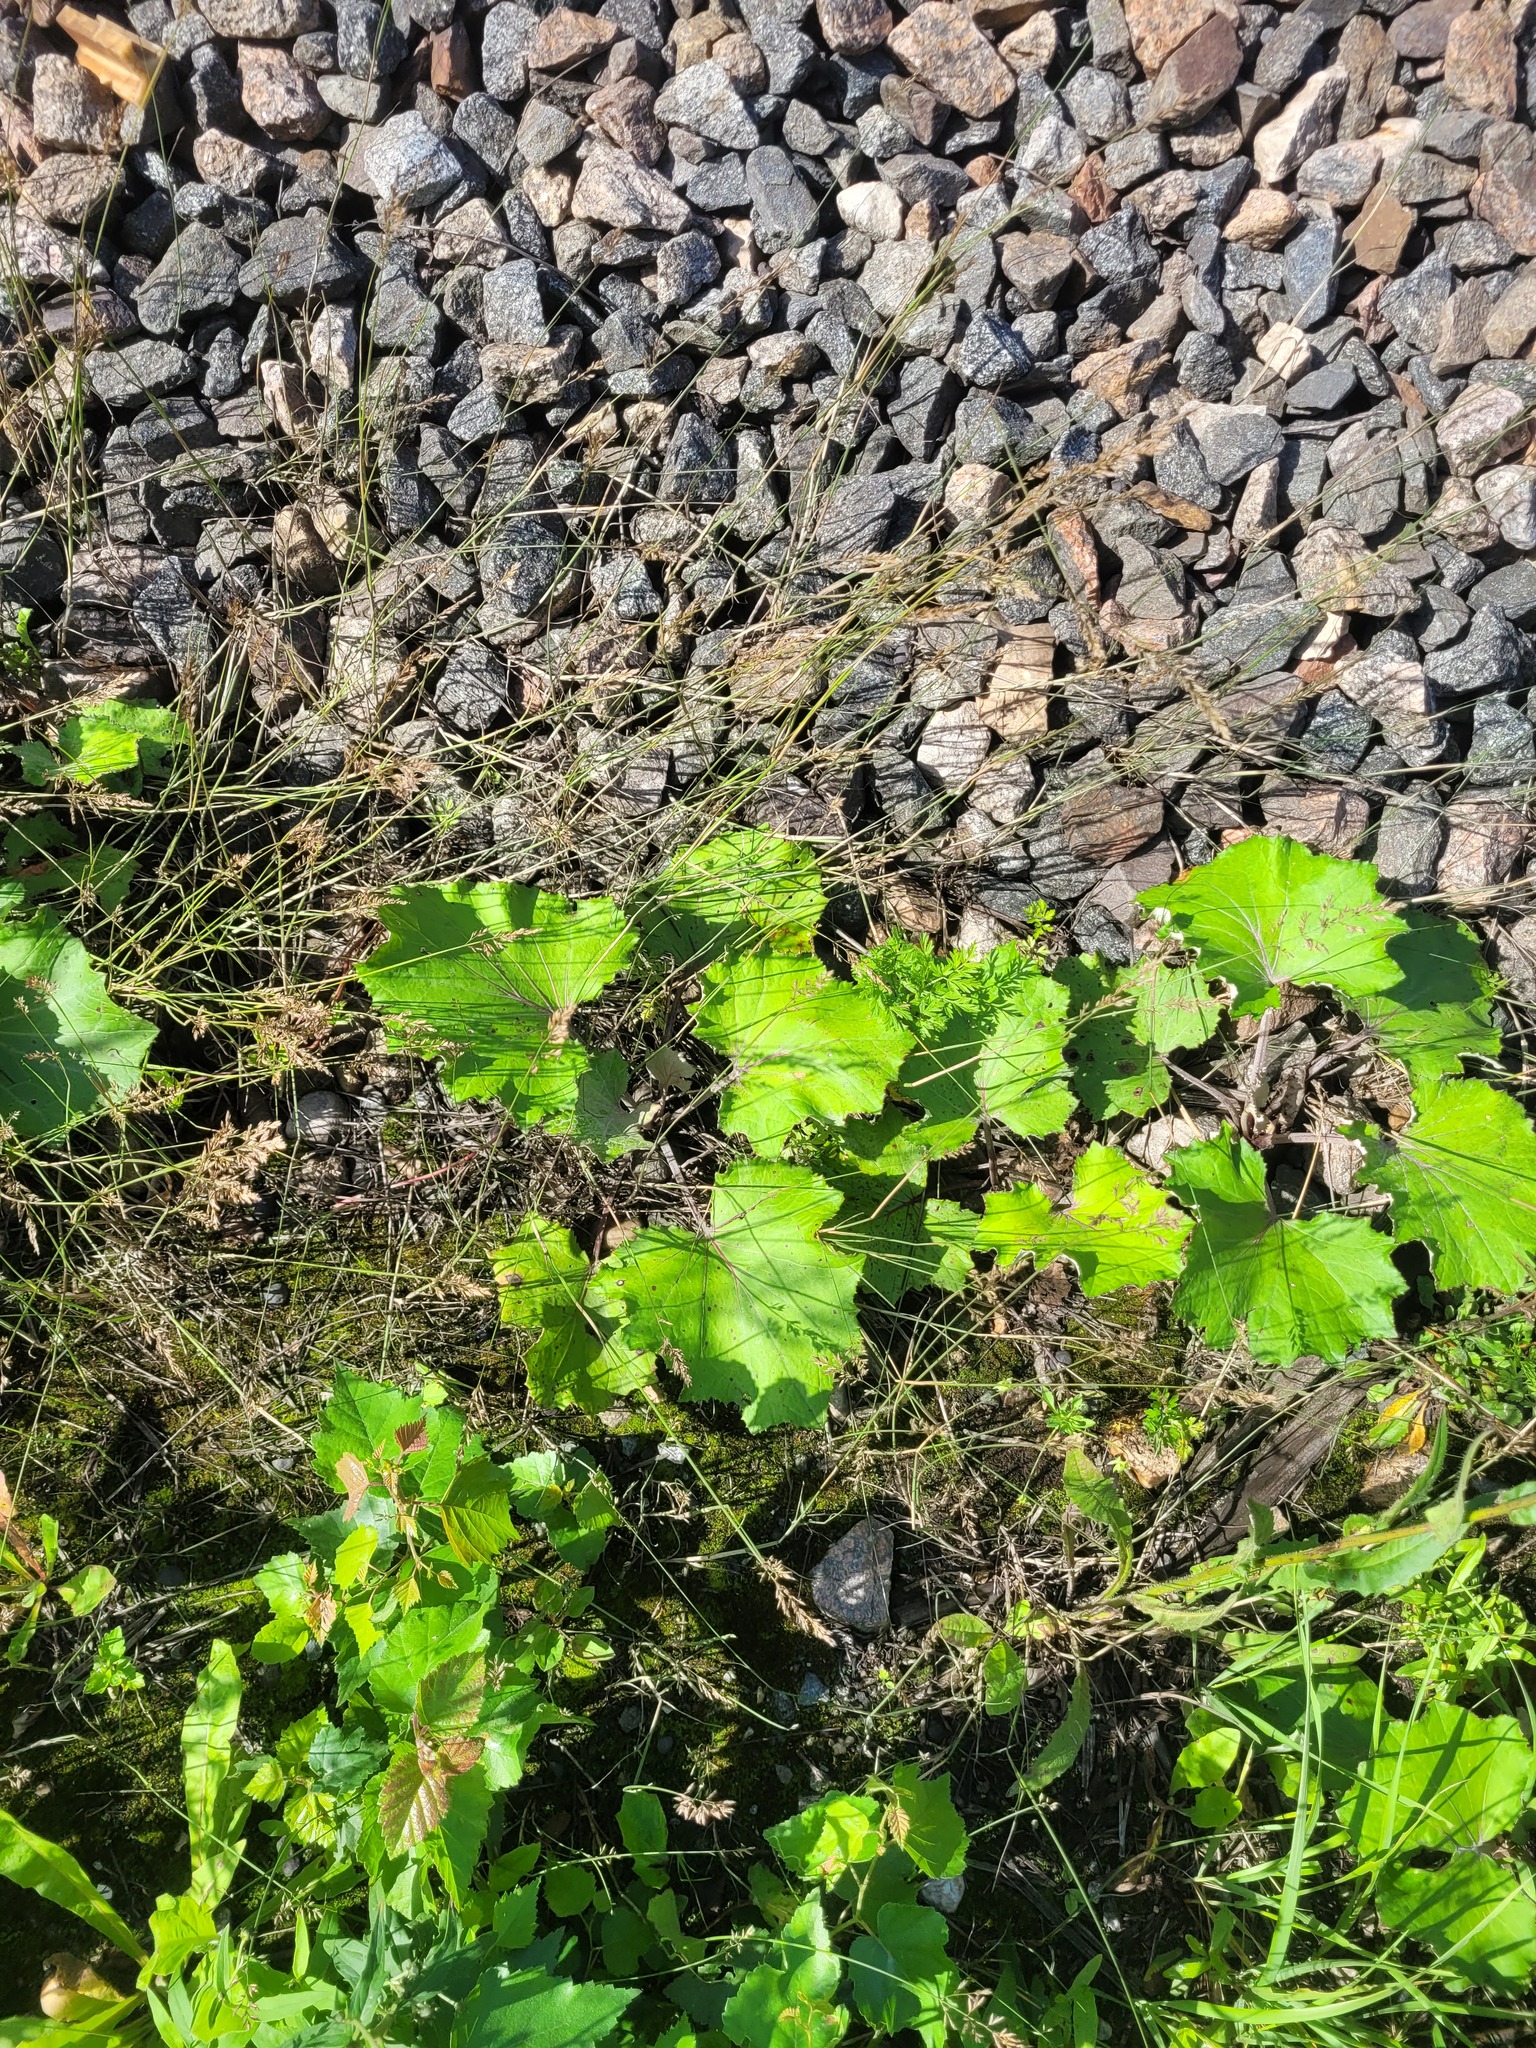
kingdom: Plantae
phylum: Tracheophyta
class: Magnoliopsida
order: Asterales
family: Asteraceae
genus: Tussilago
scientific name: Tussilago farfara
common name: Coltsfoot
